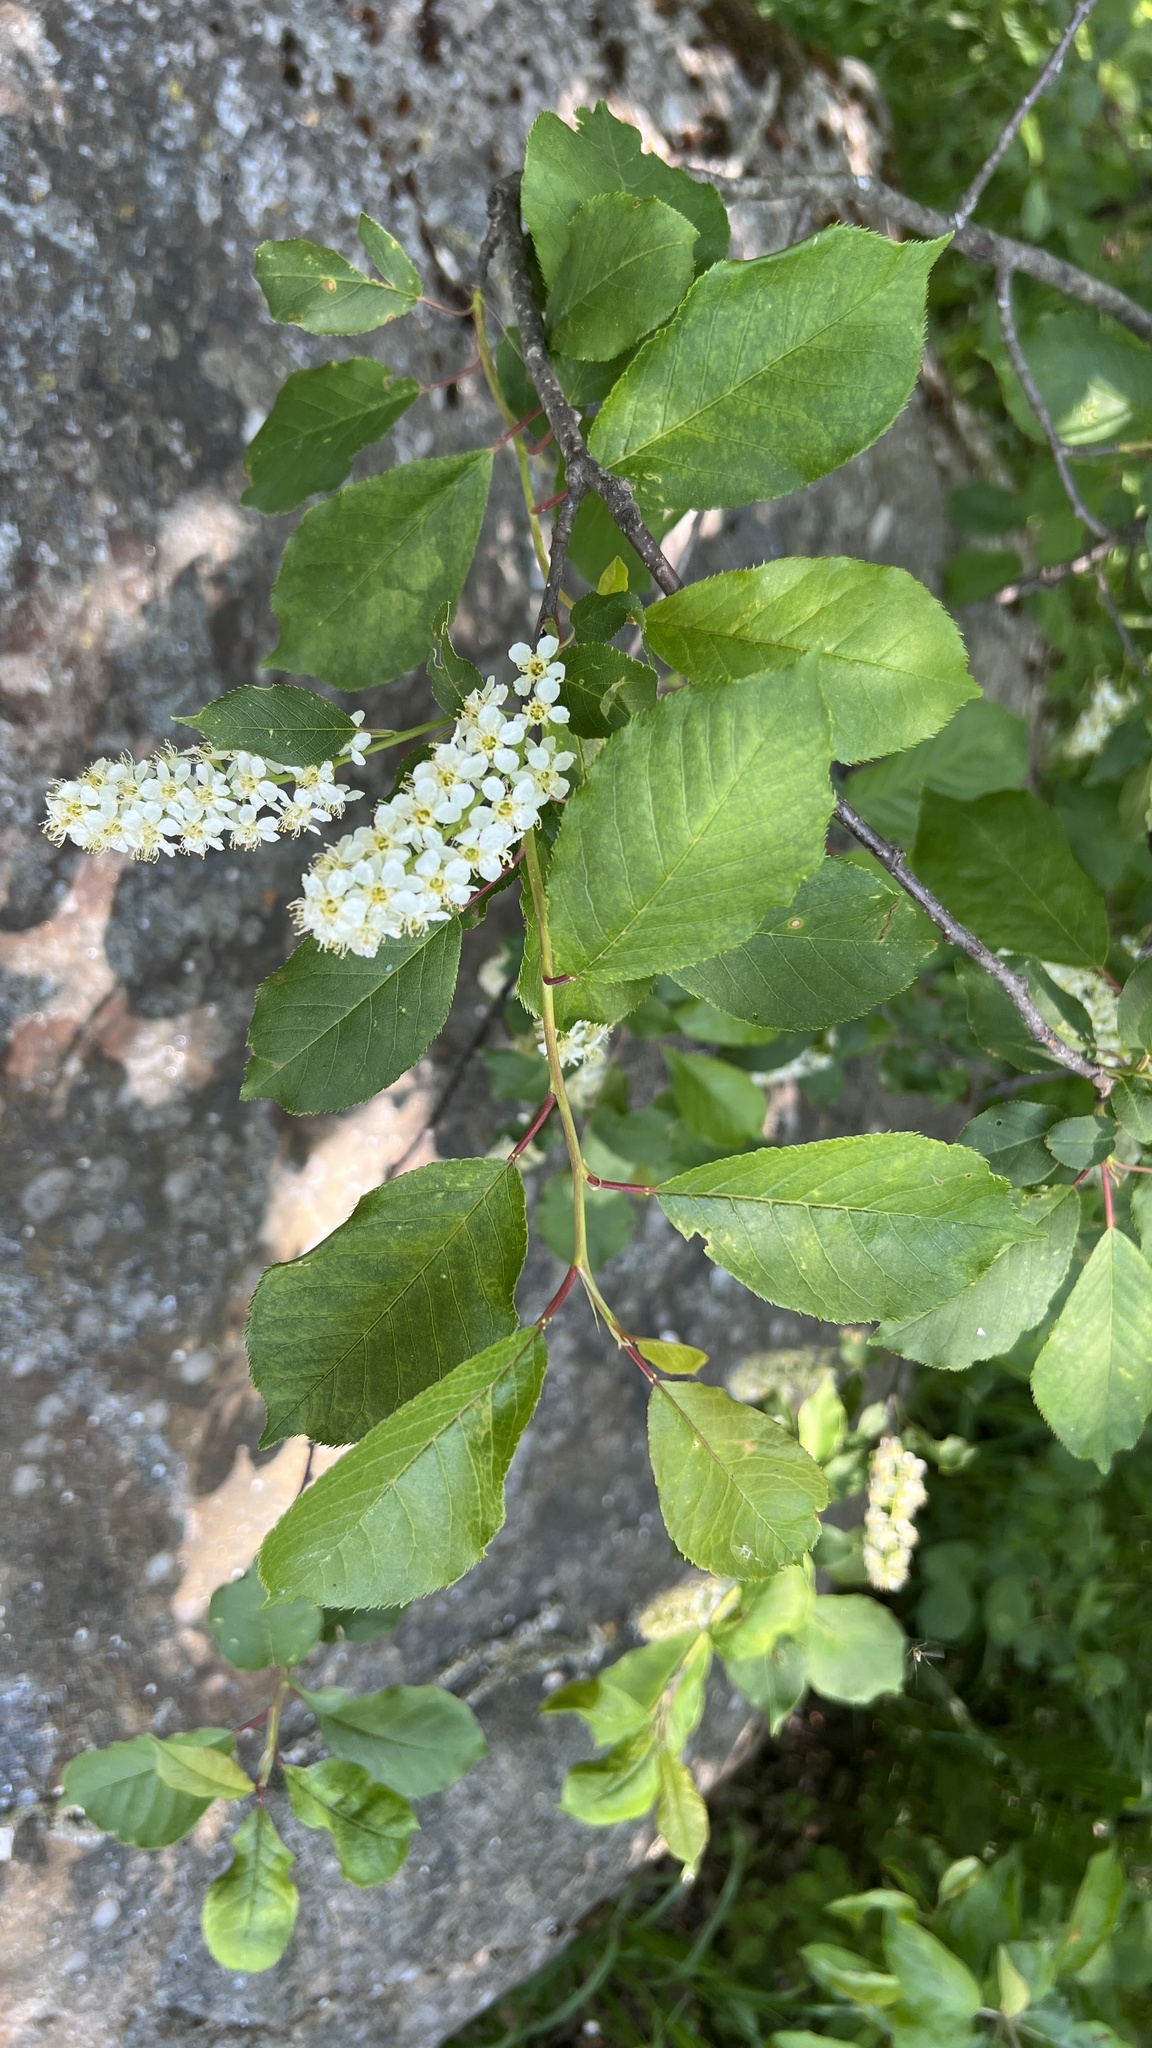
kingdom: Plantae
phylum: Tracheophyta
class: Magnoliopsida
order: Rosales
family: Rosaceae
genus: Prunus
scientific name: Prunus virginiana
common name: Chokecherry
